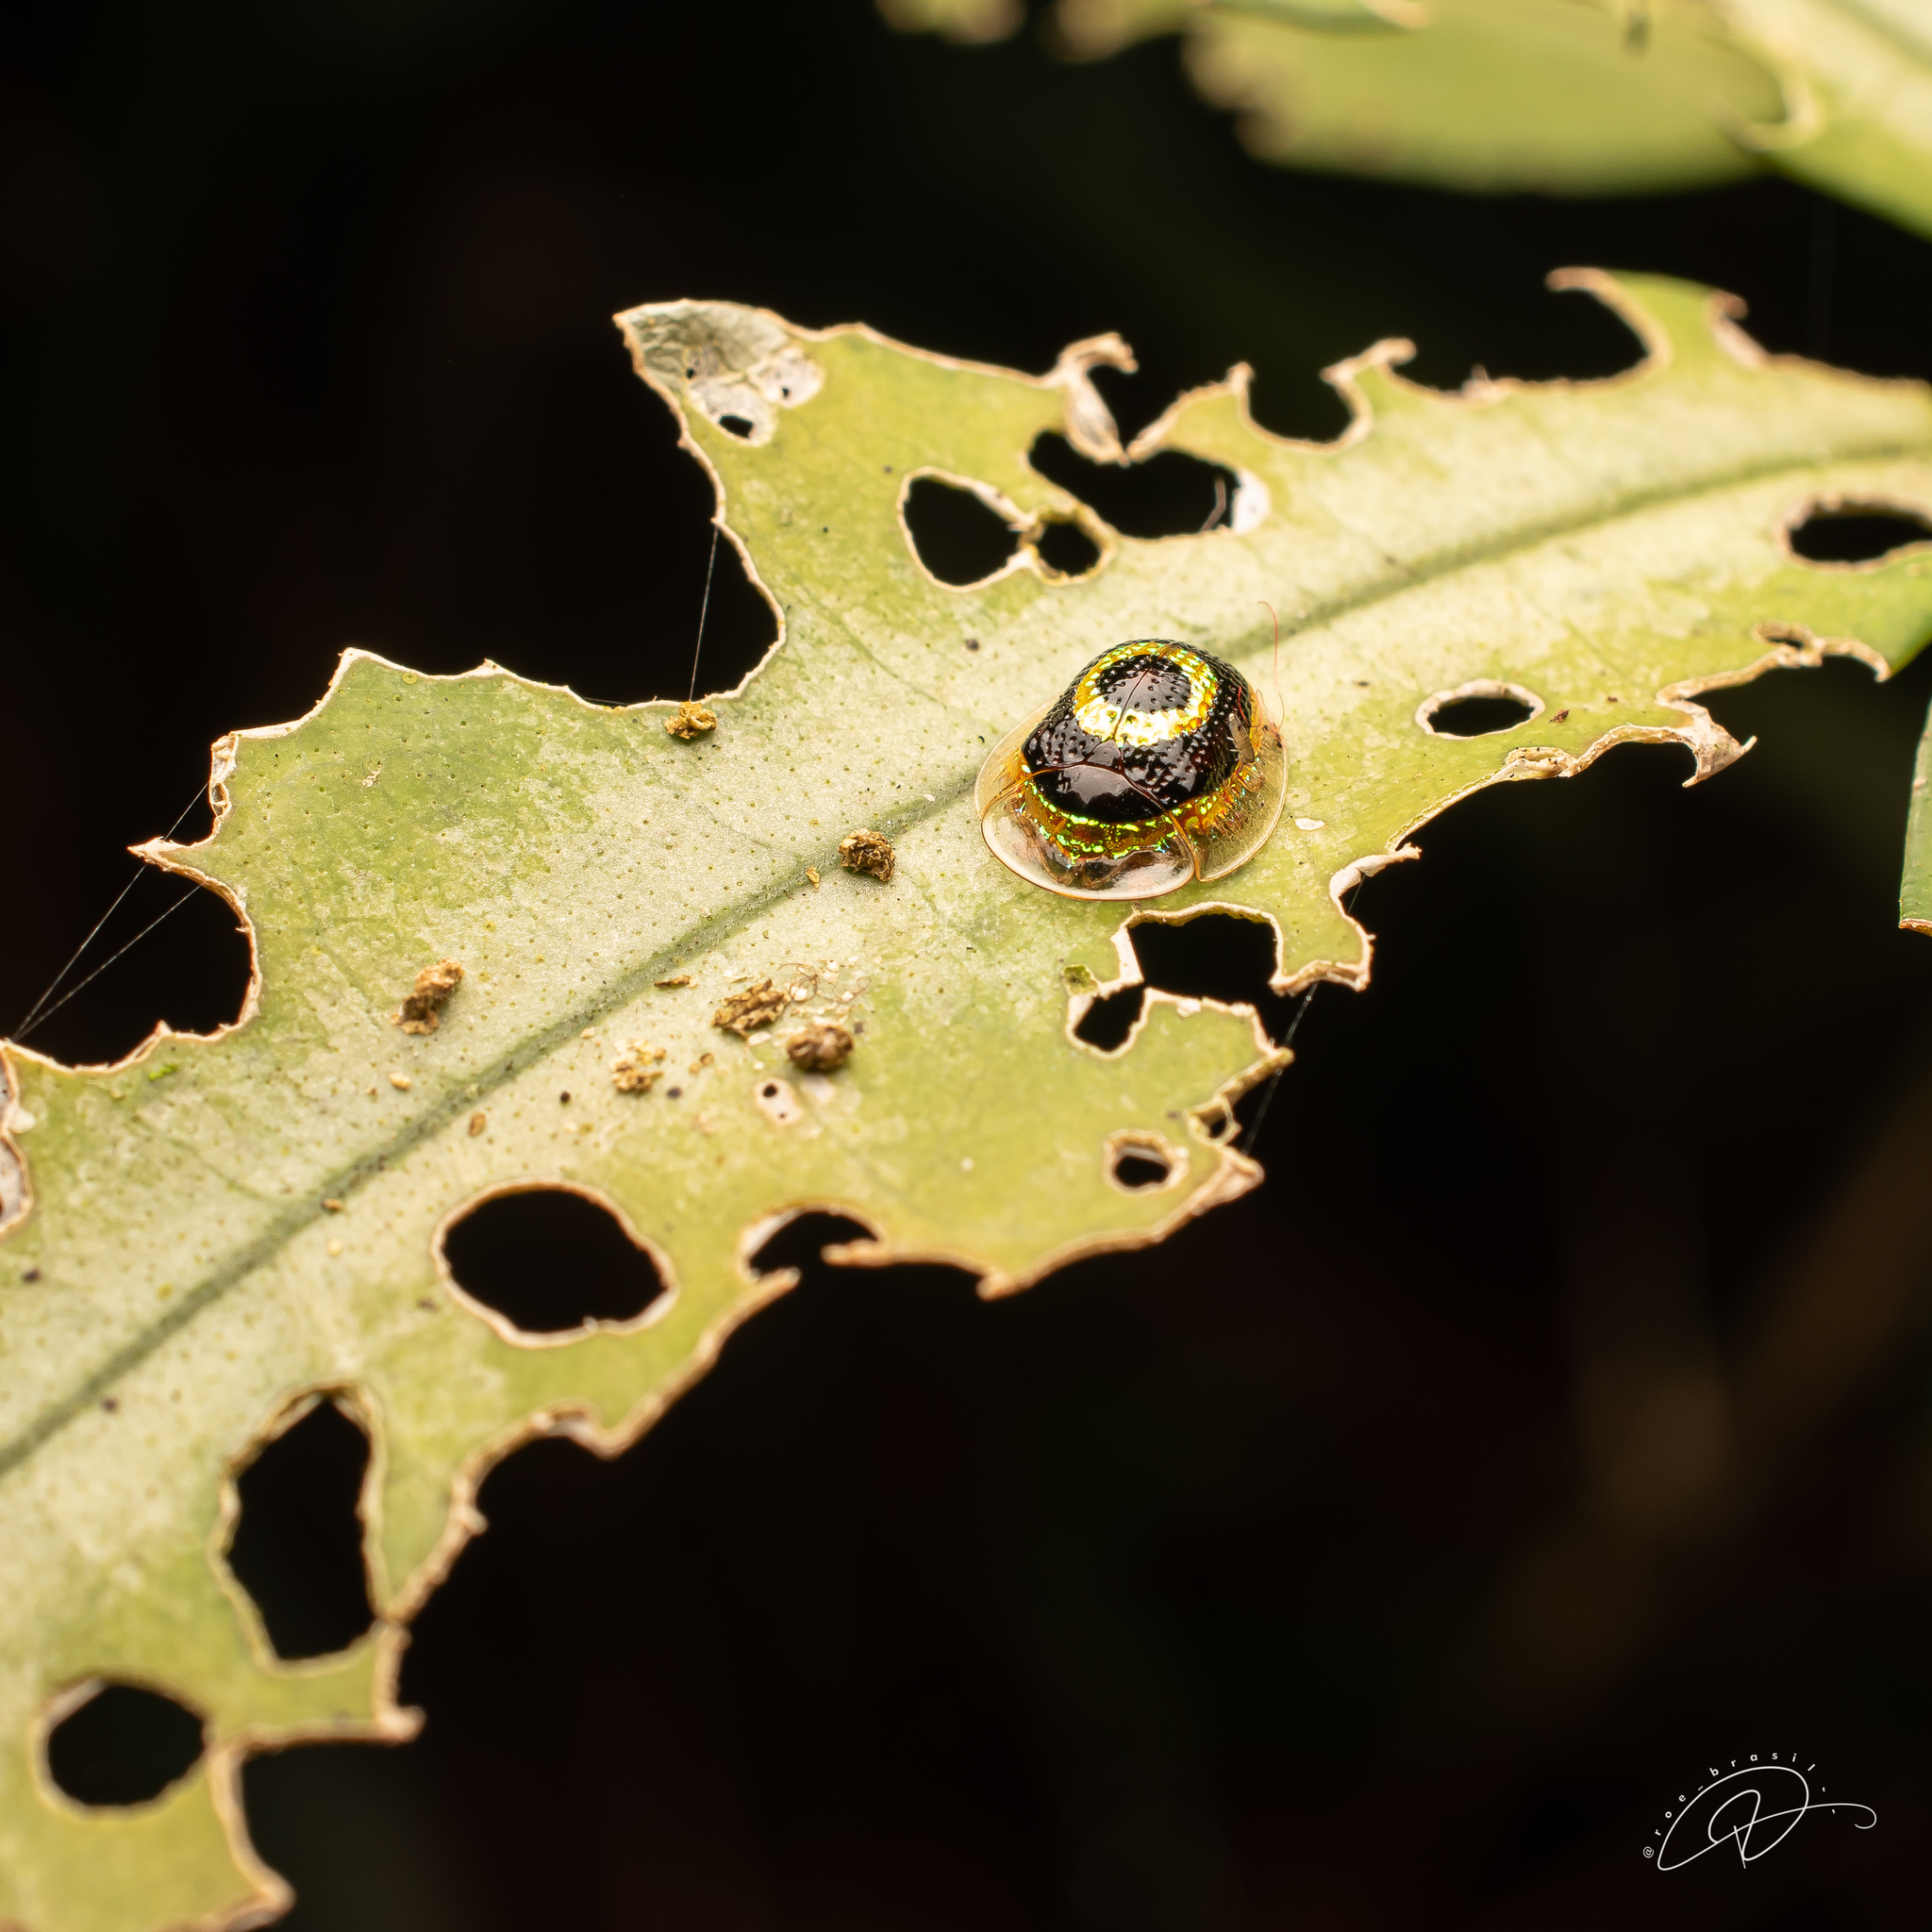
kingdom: Animalia
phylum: Arthropoda
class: Insecta
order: Coleoptera
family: Chrysomelidae
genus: Charidotis
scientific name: Charidotis concentrica
